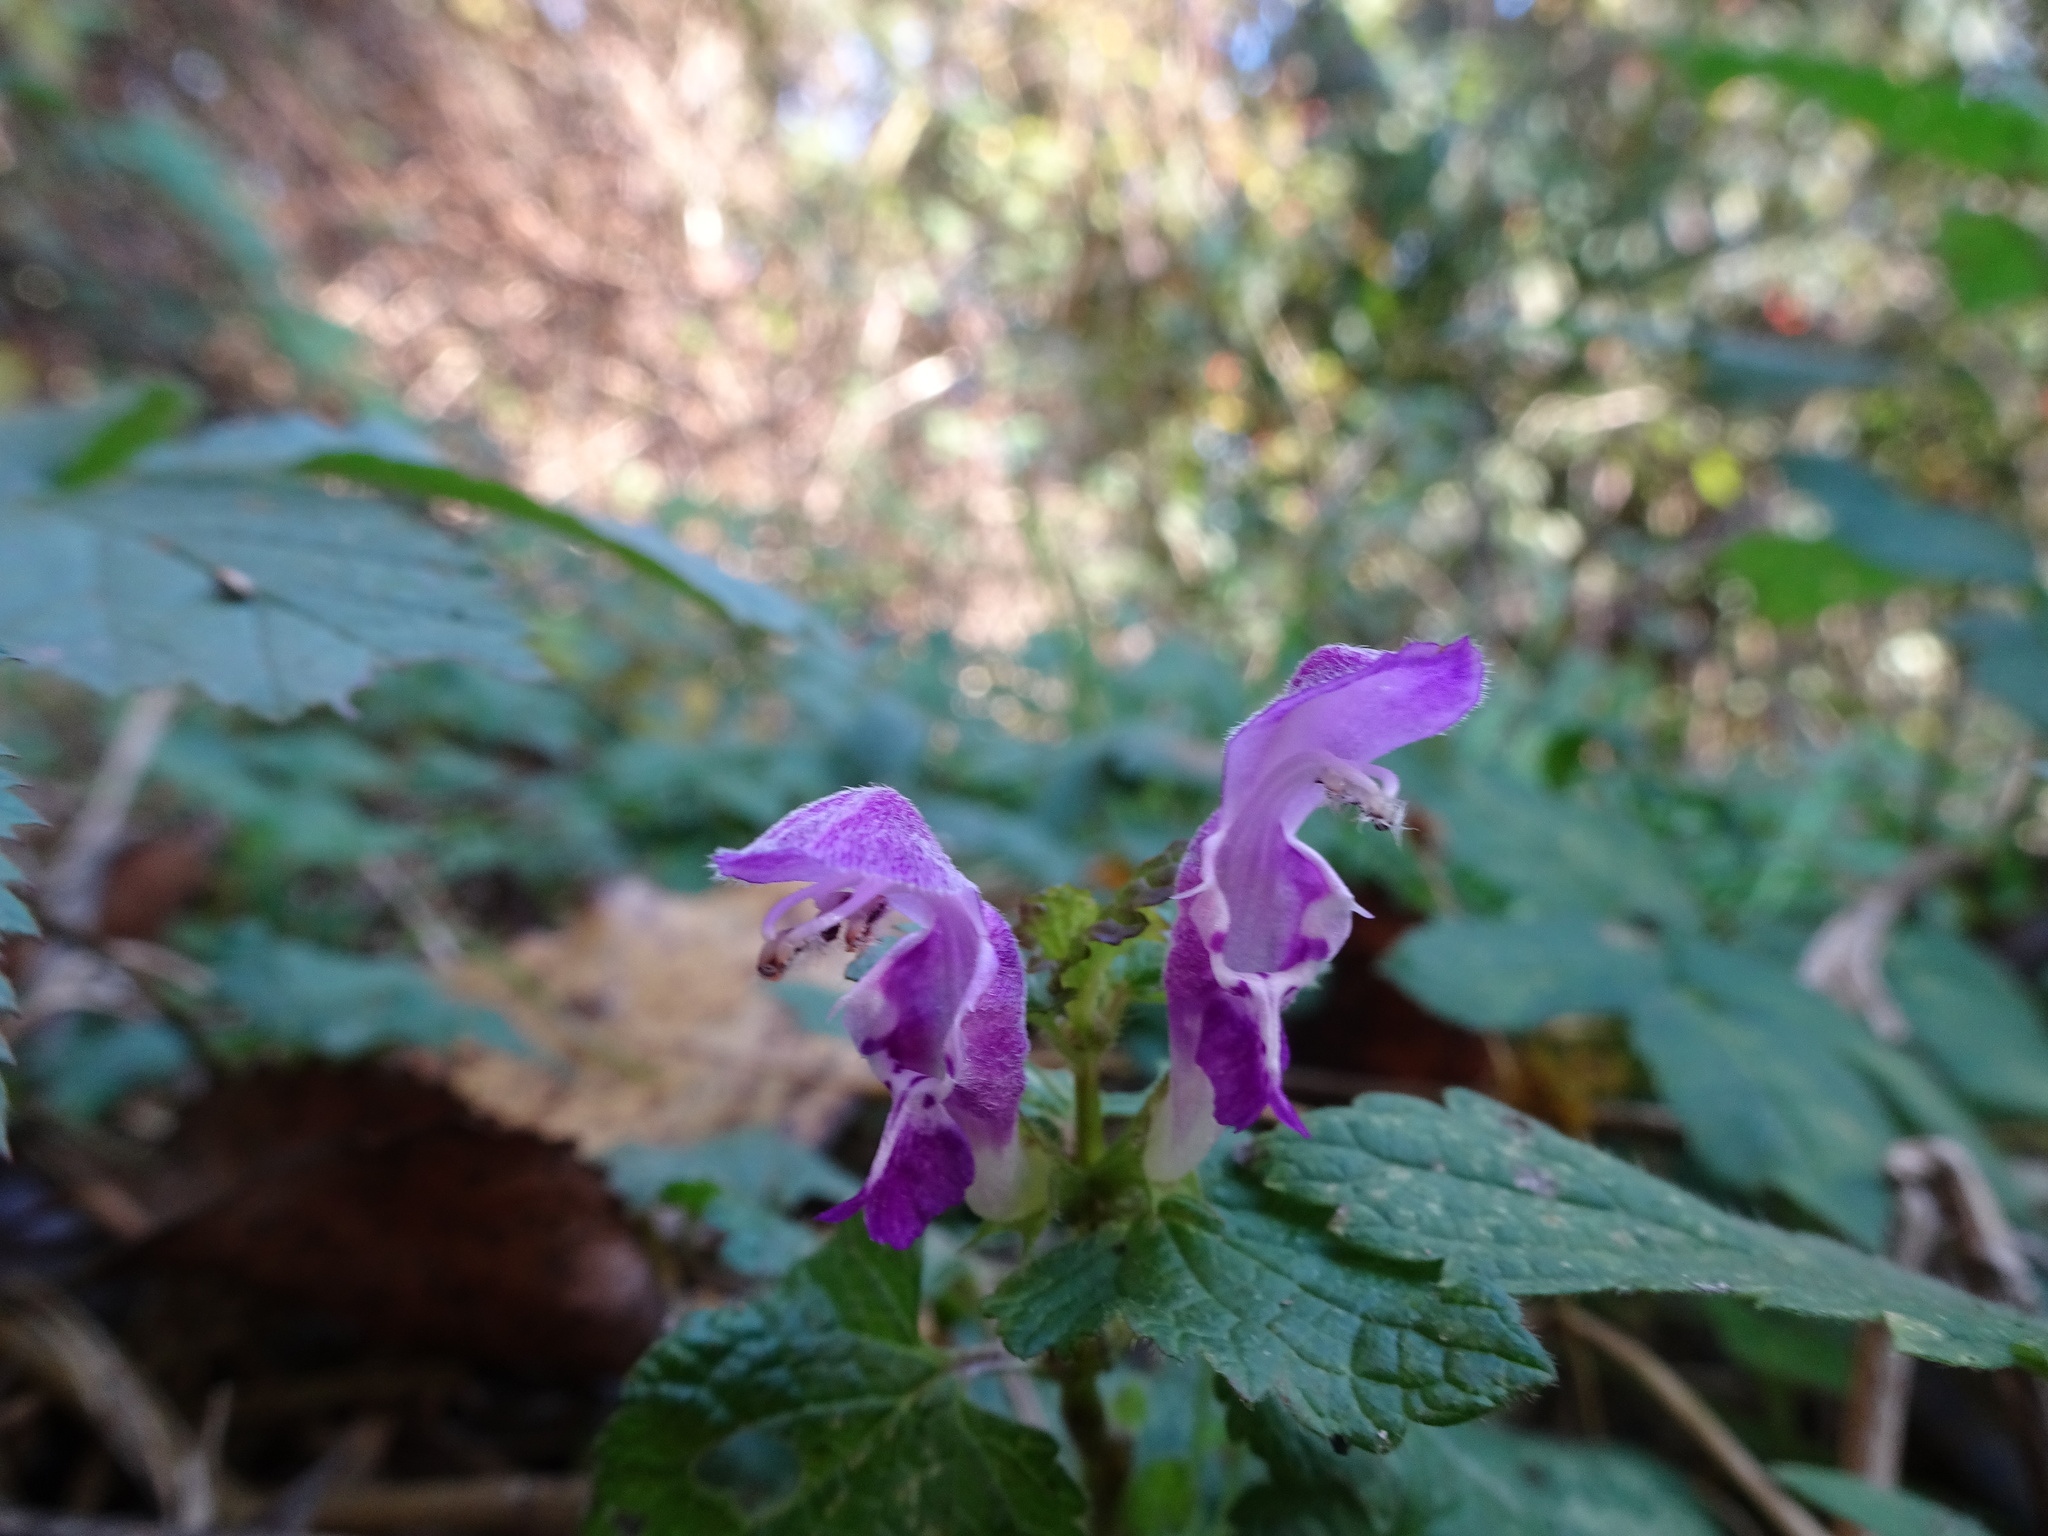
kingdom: Plantae
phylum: Tracheophyta
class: Magnoliopsida
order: Lamiales
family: Lamiaceae
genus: Lamium
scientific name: Lamium maculatum
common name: Spotted dead-nettle
